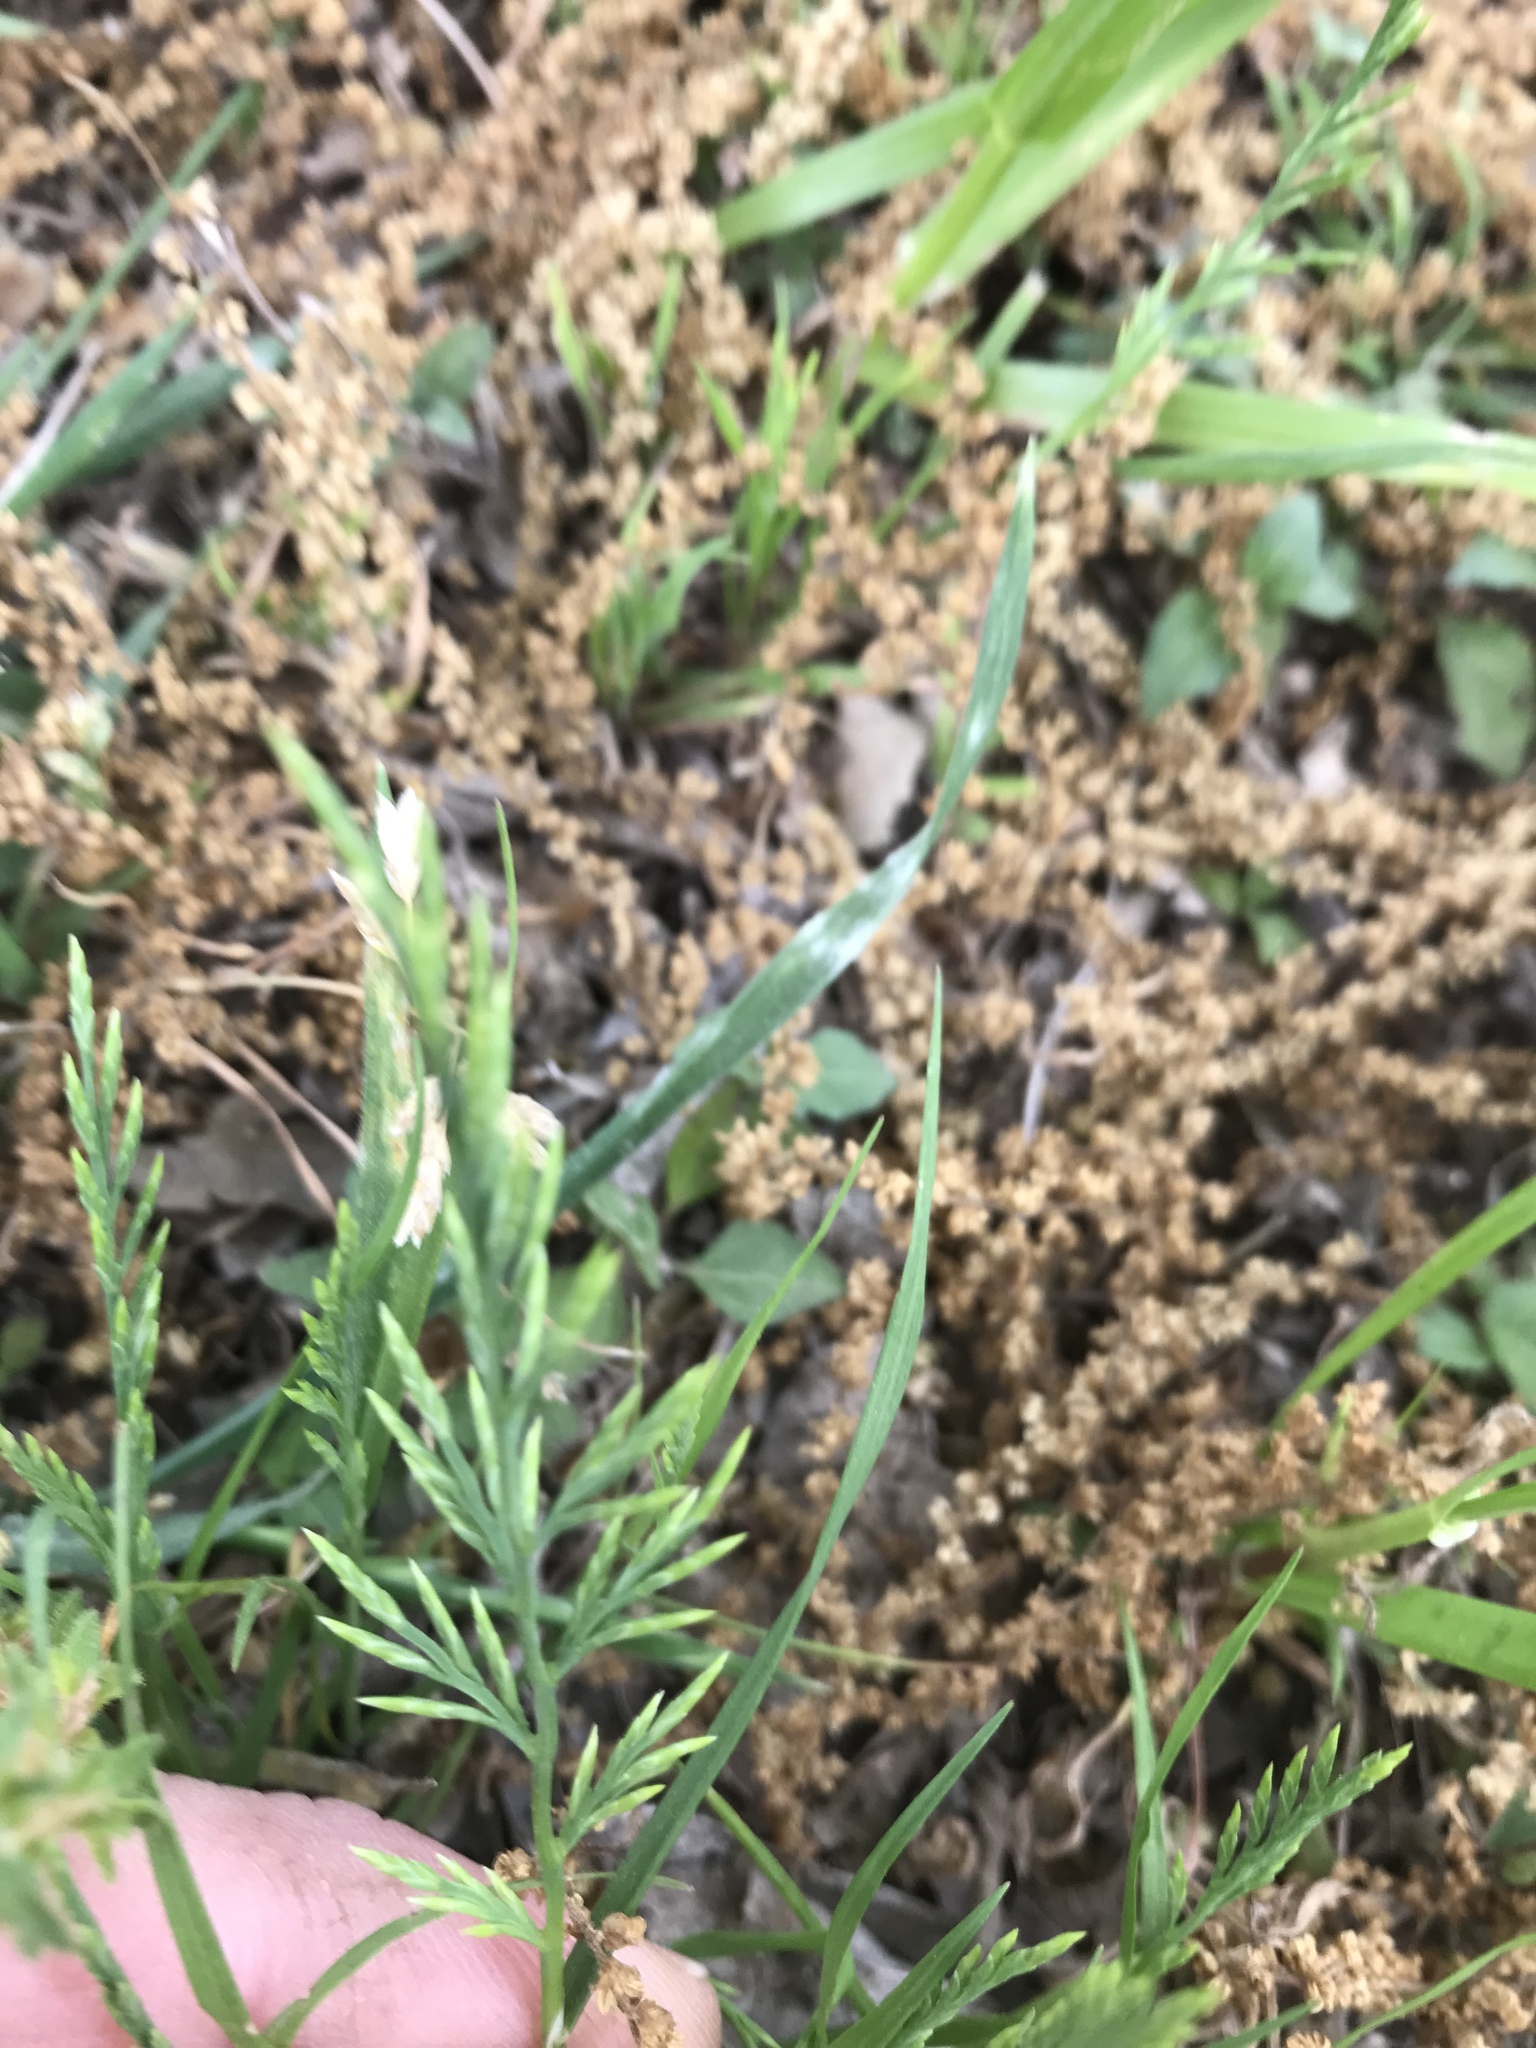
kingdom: Plantae
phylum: Tracheophyta
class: Liliopsida
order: Poales
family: Poaceae
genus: Catapodium
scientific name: Catapodium rigidum
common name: Fern-grass
